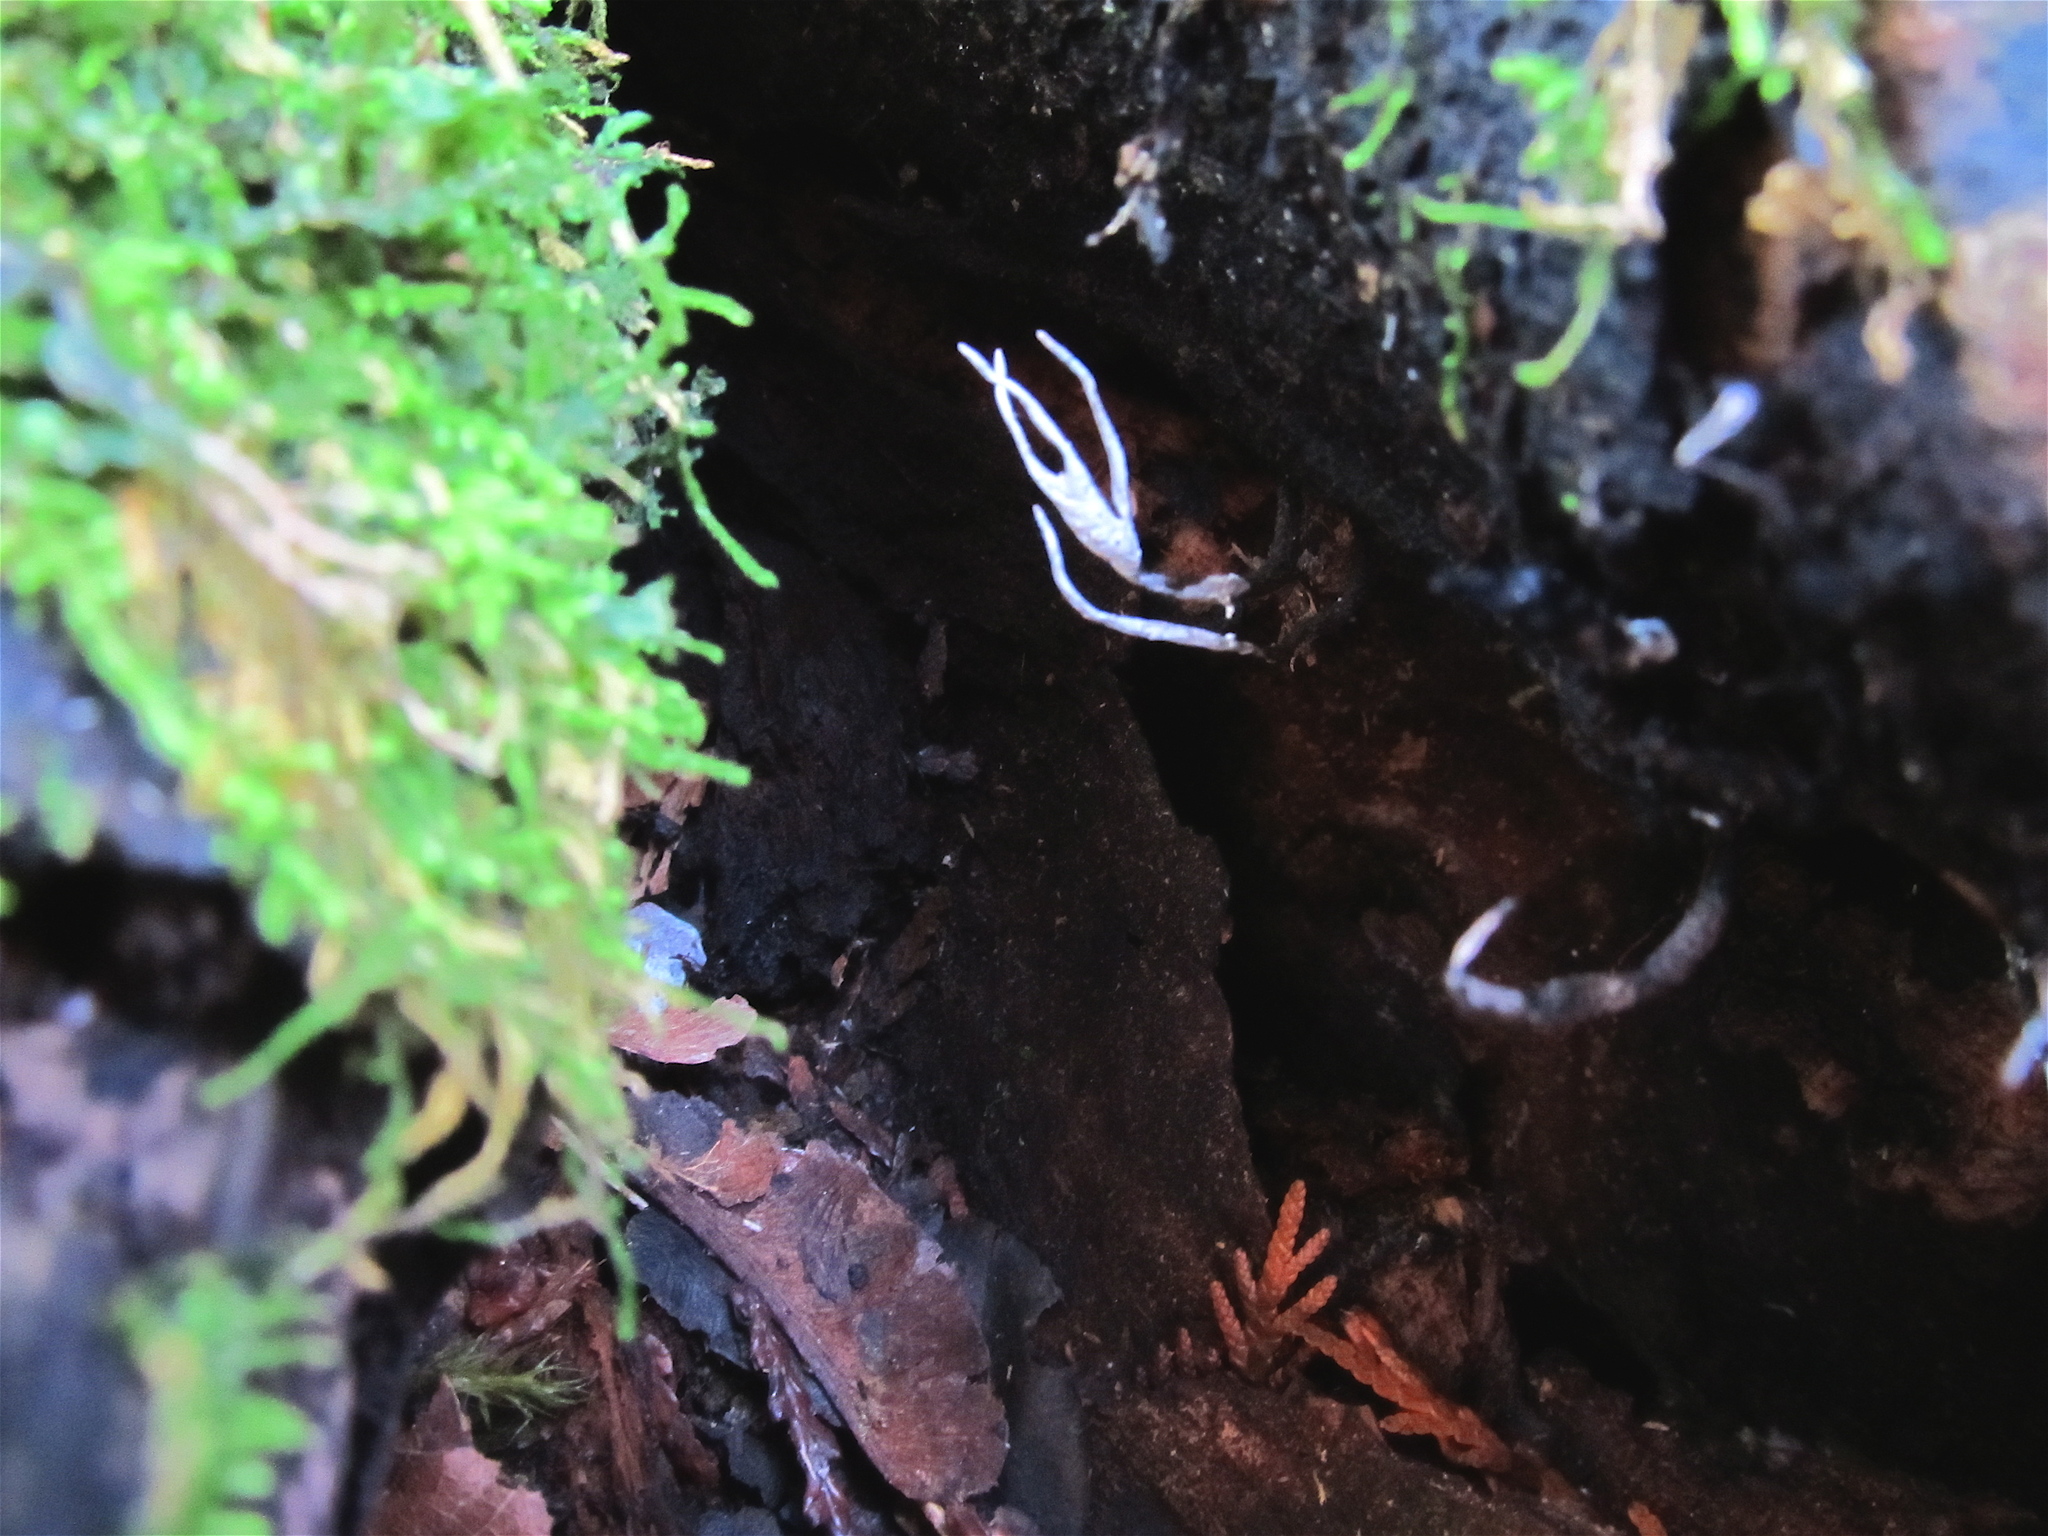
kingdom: Fungi
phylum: Ascomycota
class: Sordariomycetes
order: Xylariales
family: Xylariaceae
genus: Xylaria
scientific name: Xylaria hypoxylon
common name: Candle-snuff fungus
